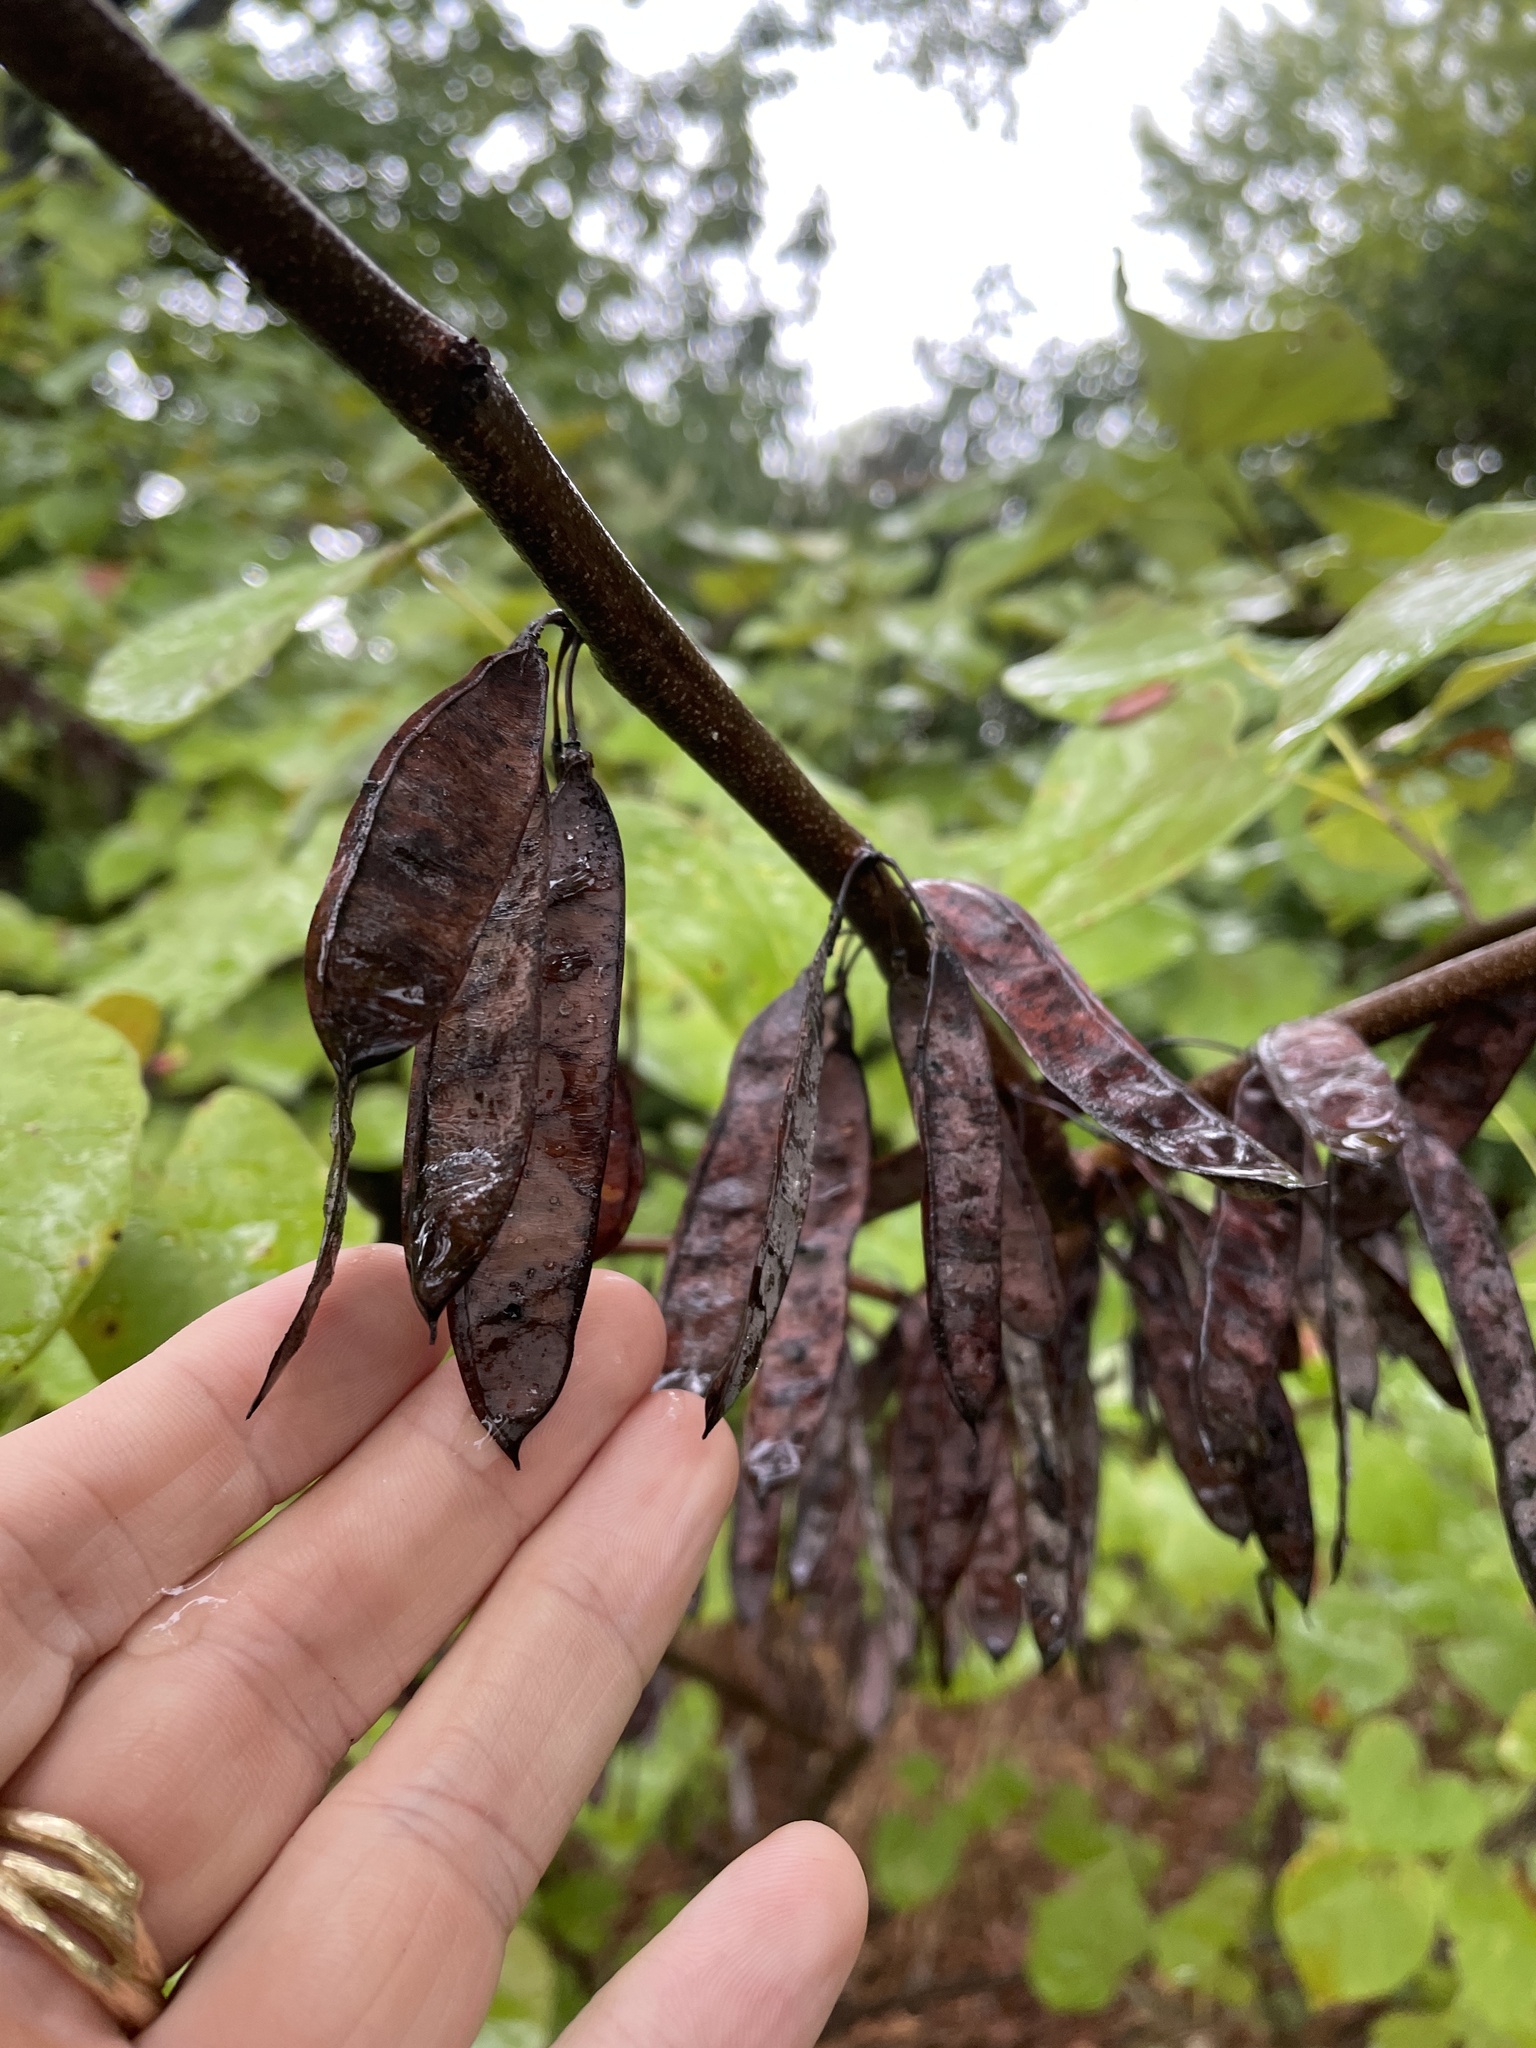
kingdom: Plantae
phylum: Tracheophyta
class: Magnoliopsida
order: Fabales
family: Fabaceae
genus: Cercis
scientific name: Cercis canadensis
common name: Eastern redbud
